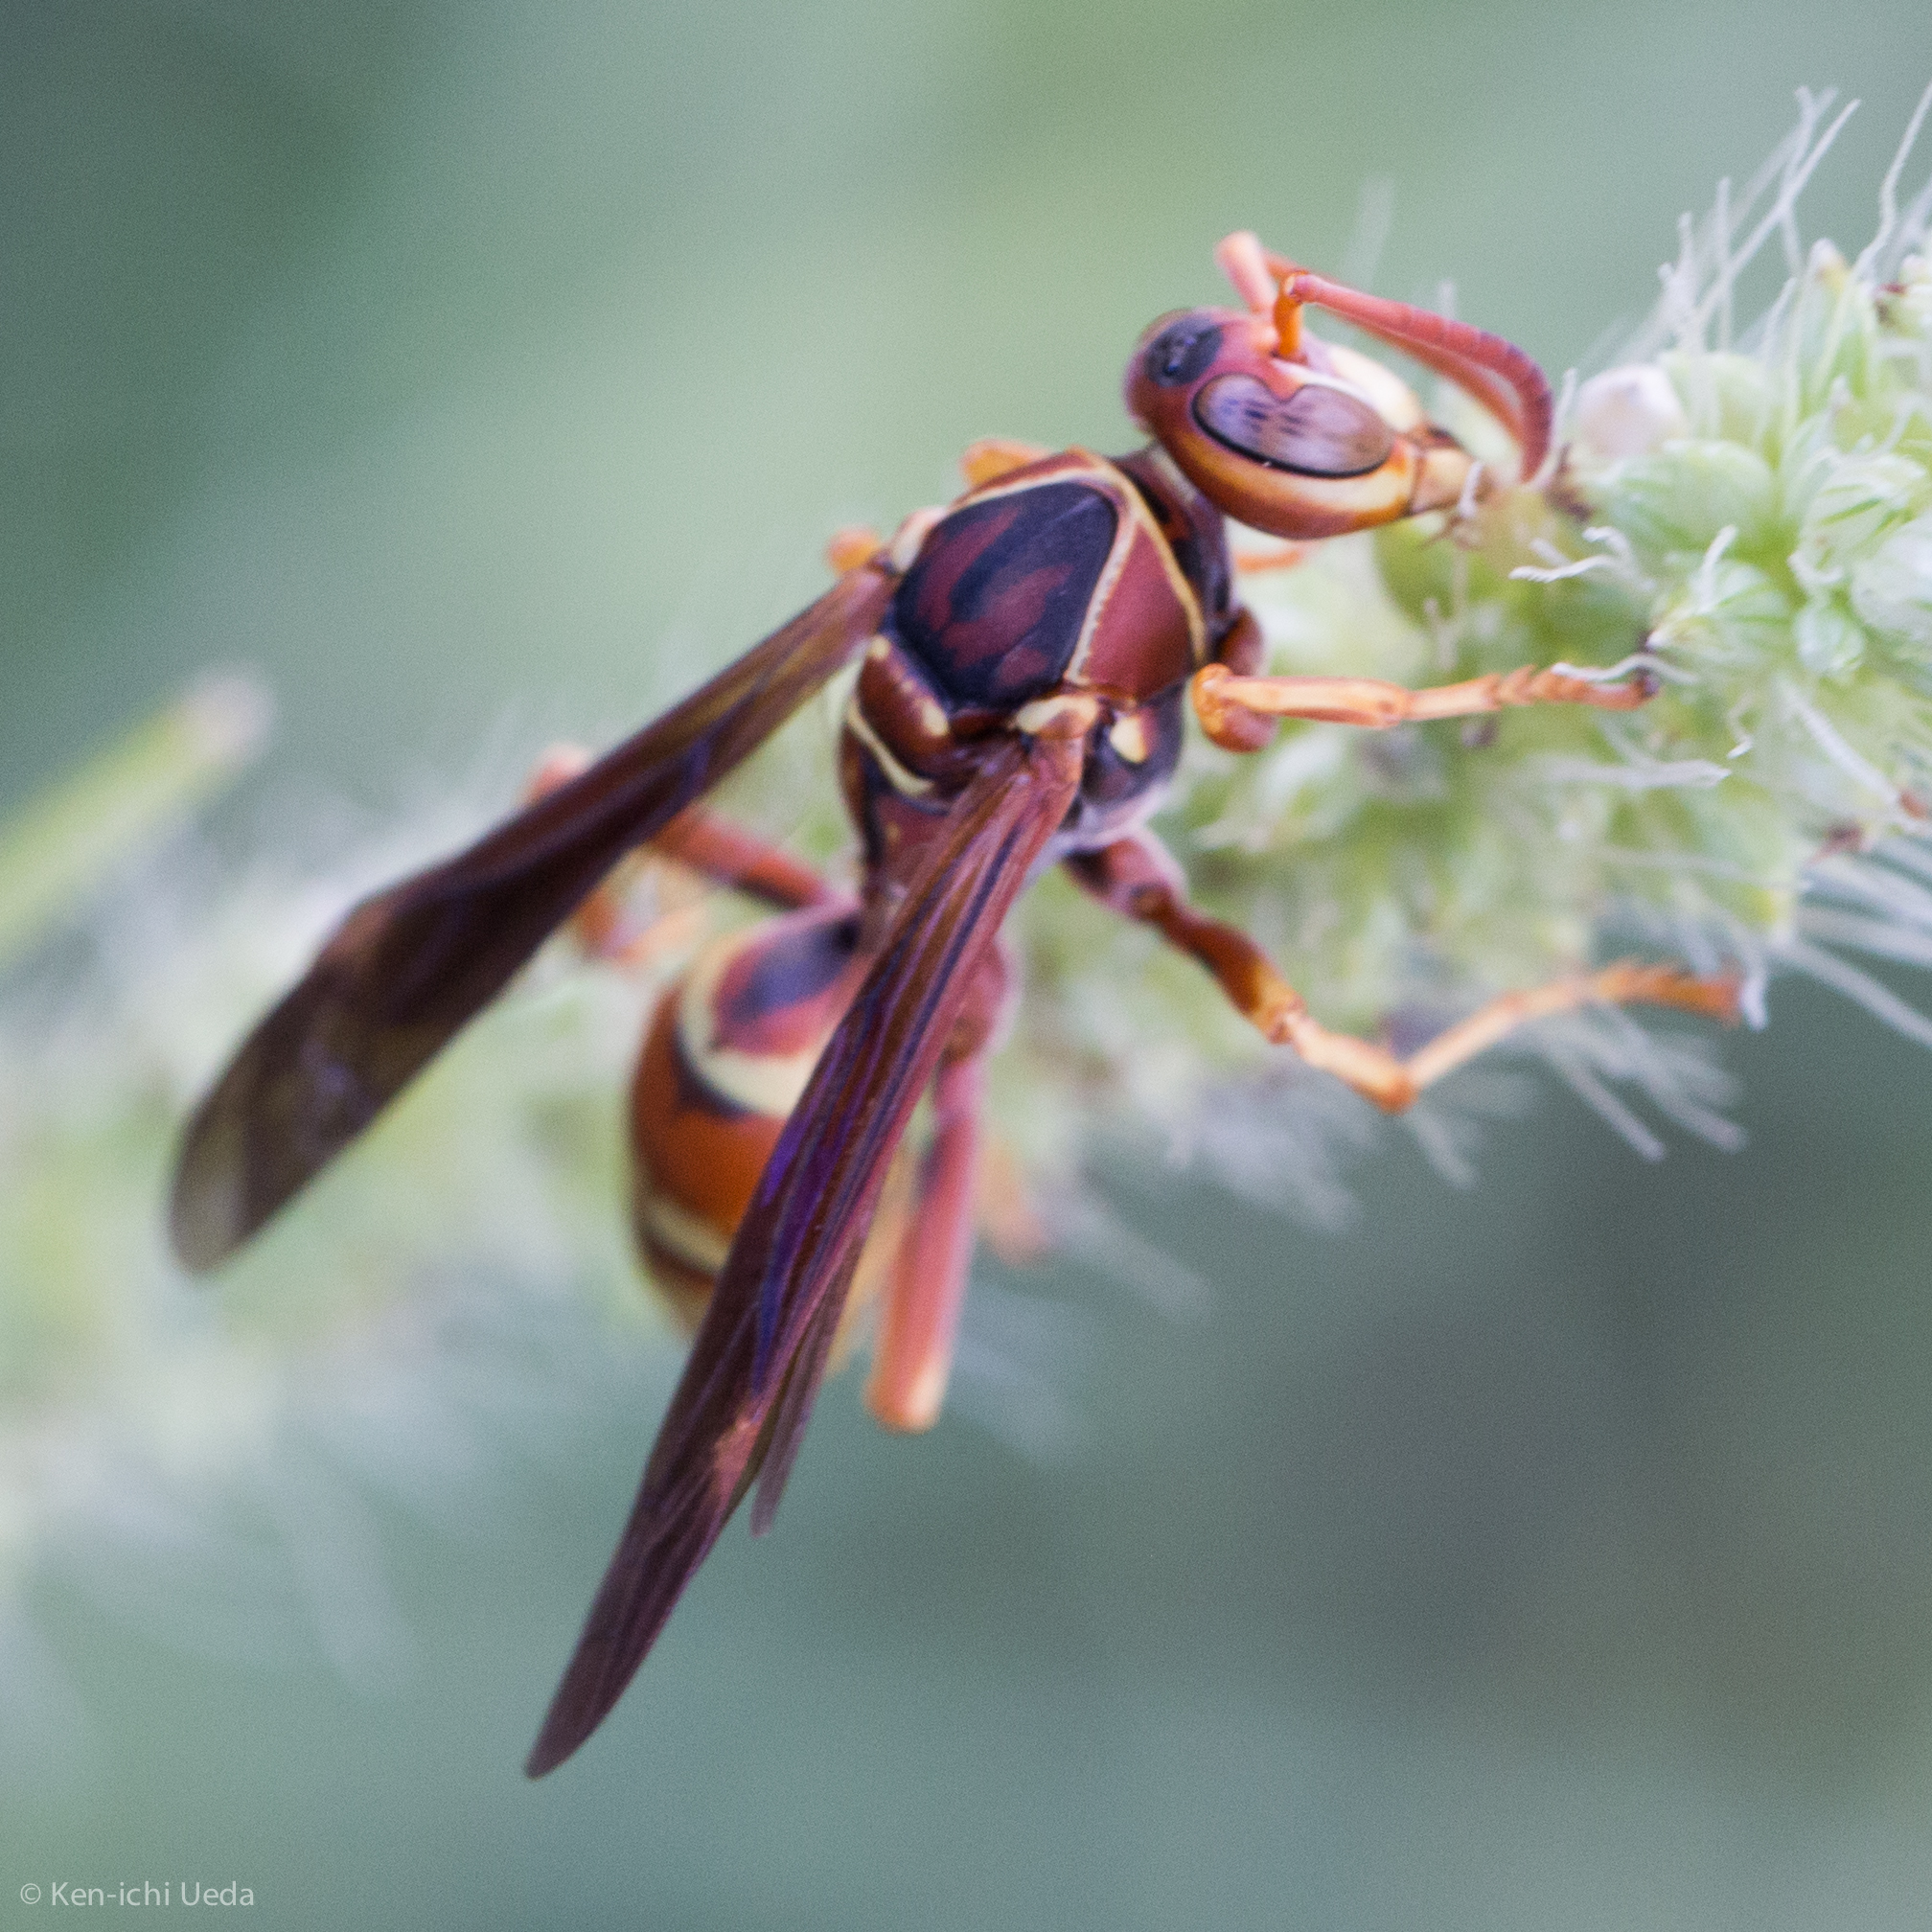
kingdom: Animalia
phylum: Arthropoda
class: Insecta
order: Hymenoptera
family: Eumenidae
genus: Polistes
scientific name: Polistes dorsalis
